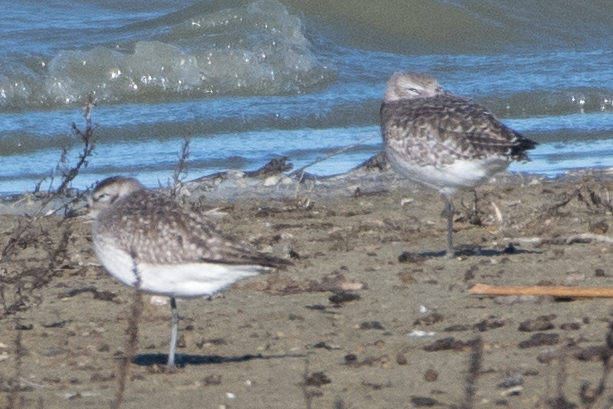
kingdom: Animalia
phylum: Chordata
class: Aves
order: Charadriiformes
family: Charadriidae
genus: Pluvialis
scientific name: Pluvialis squatarola
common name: Grey plover
